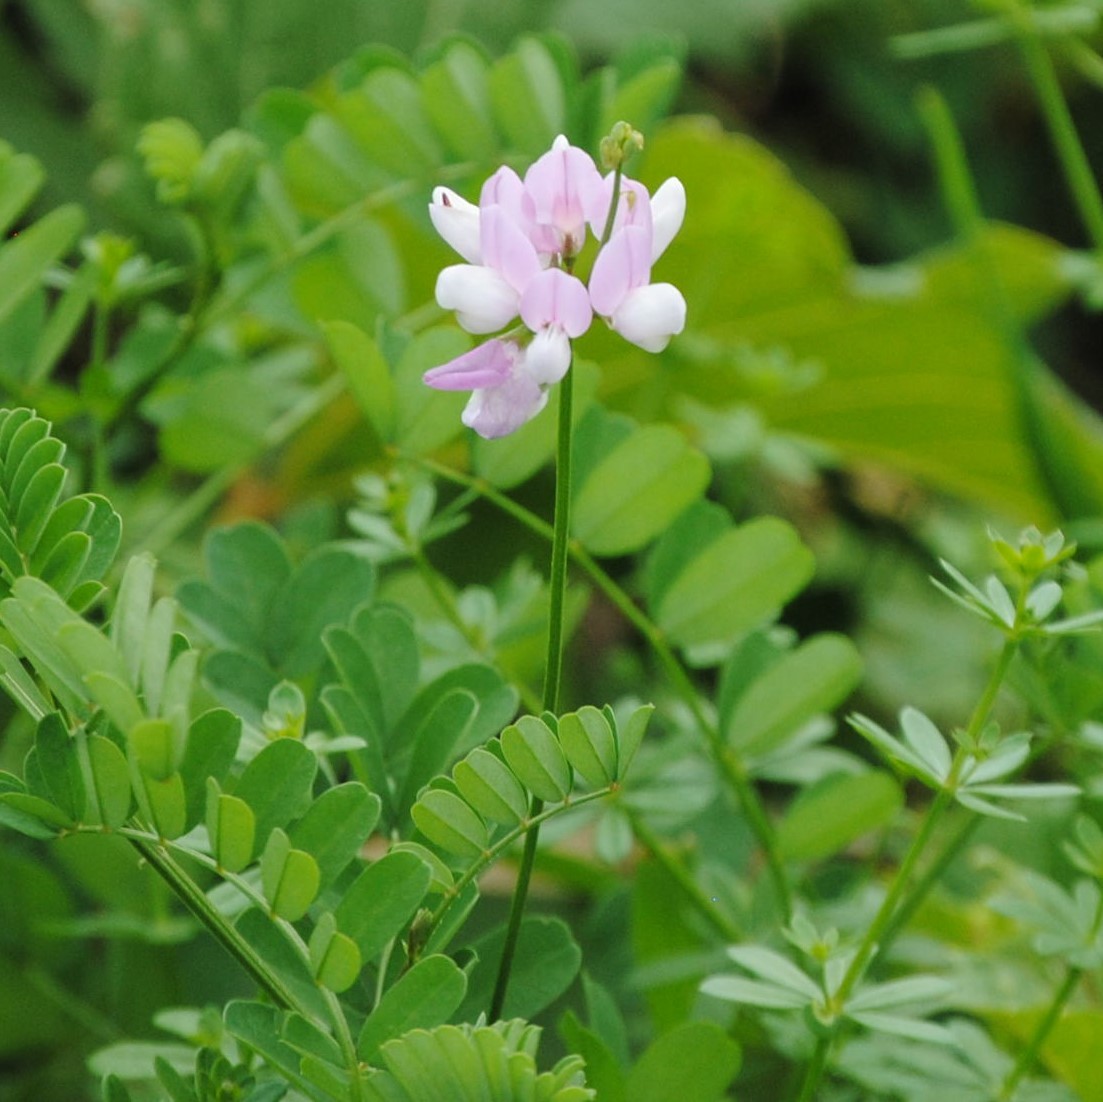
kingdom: Plantae
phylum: Tracheophyta
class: Magnoliopsida
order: Fabales
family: Fabaceae
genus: Coronilla
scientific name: Coronilla varia
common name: Crownvetch
